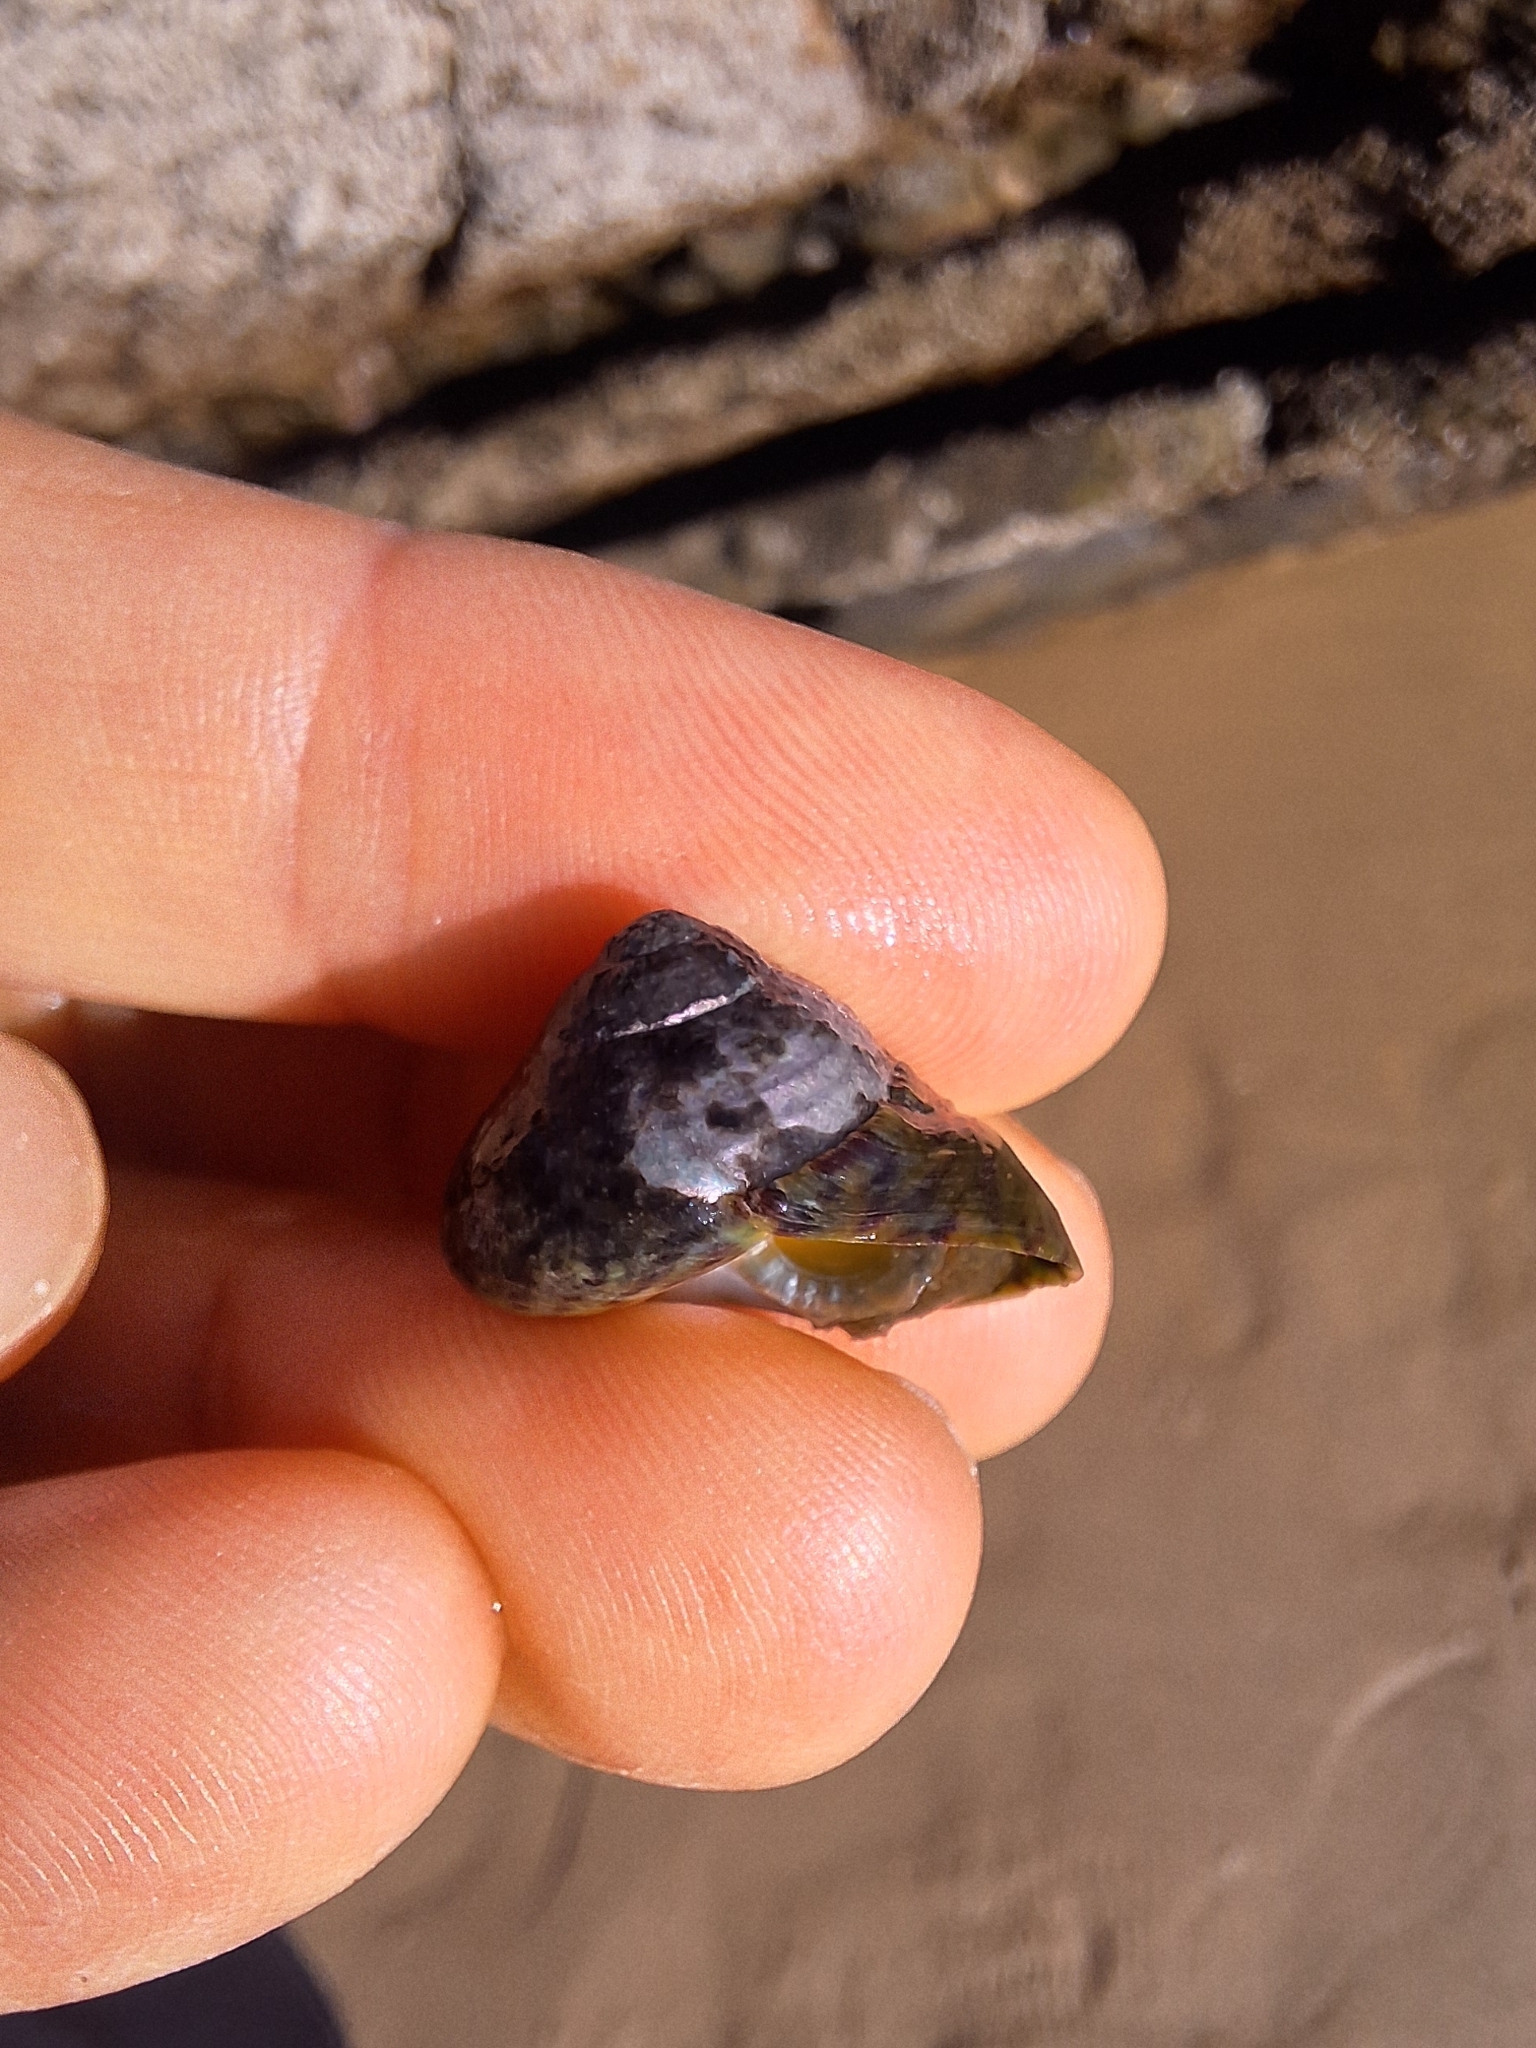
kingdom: Animalia
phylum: Mollusca
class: Gastropoda
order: Trochida
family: Trochidae
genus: Phorcus
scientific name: Phorcus sauciatus
